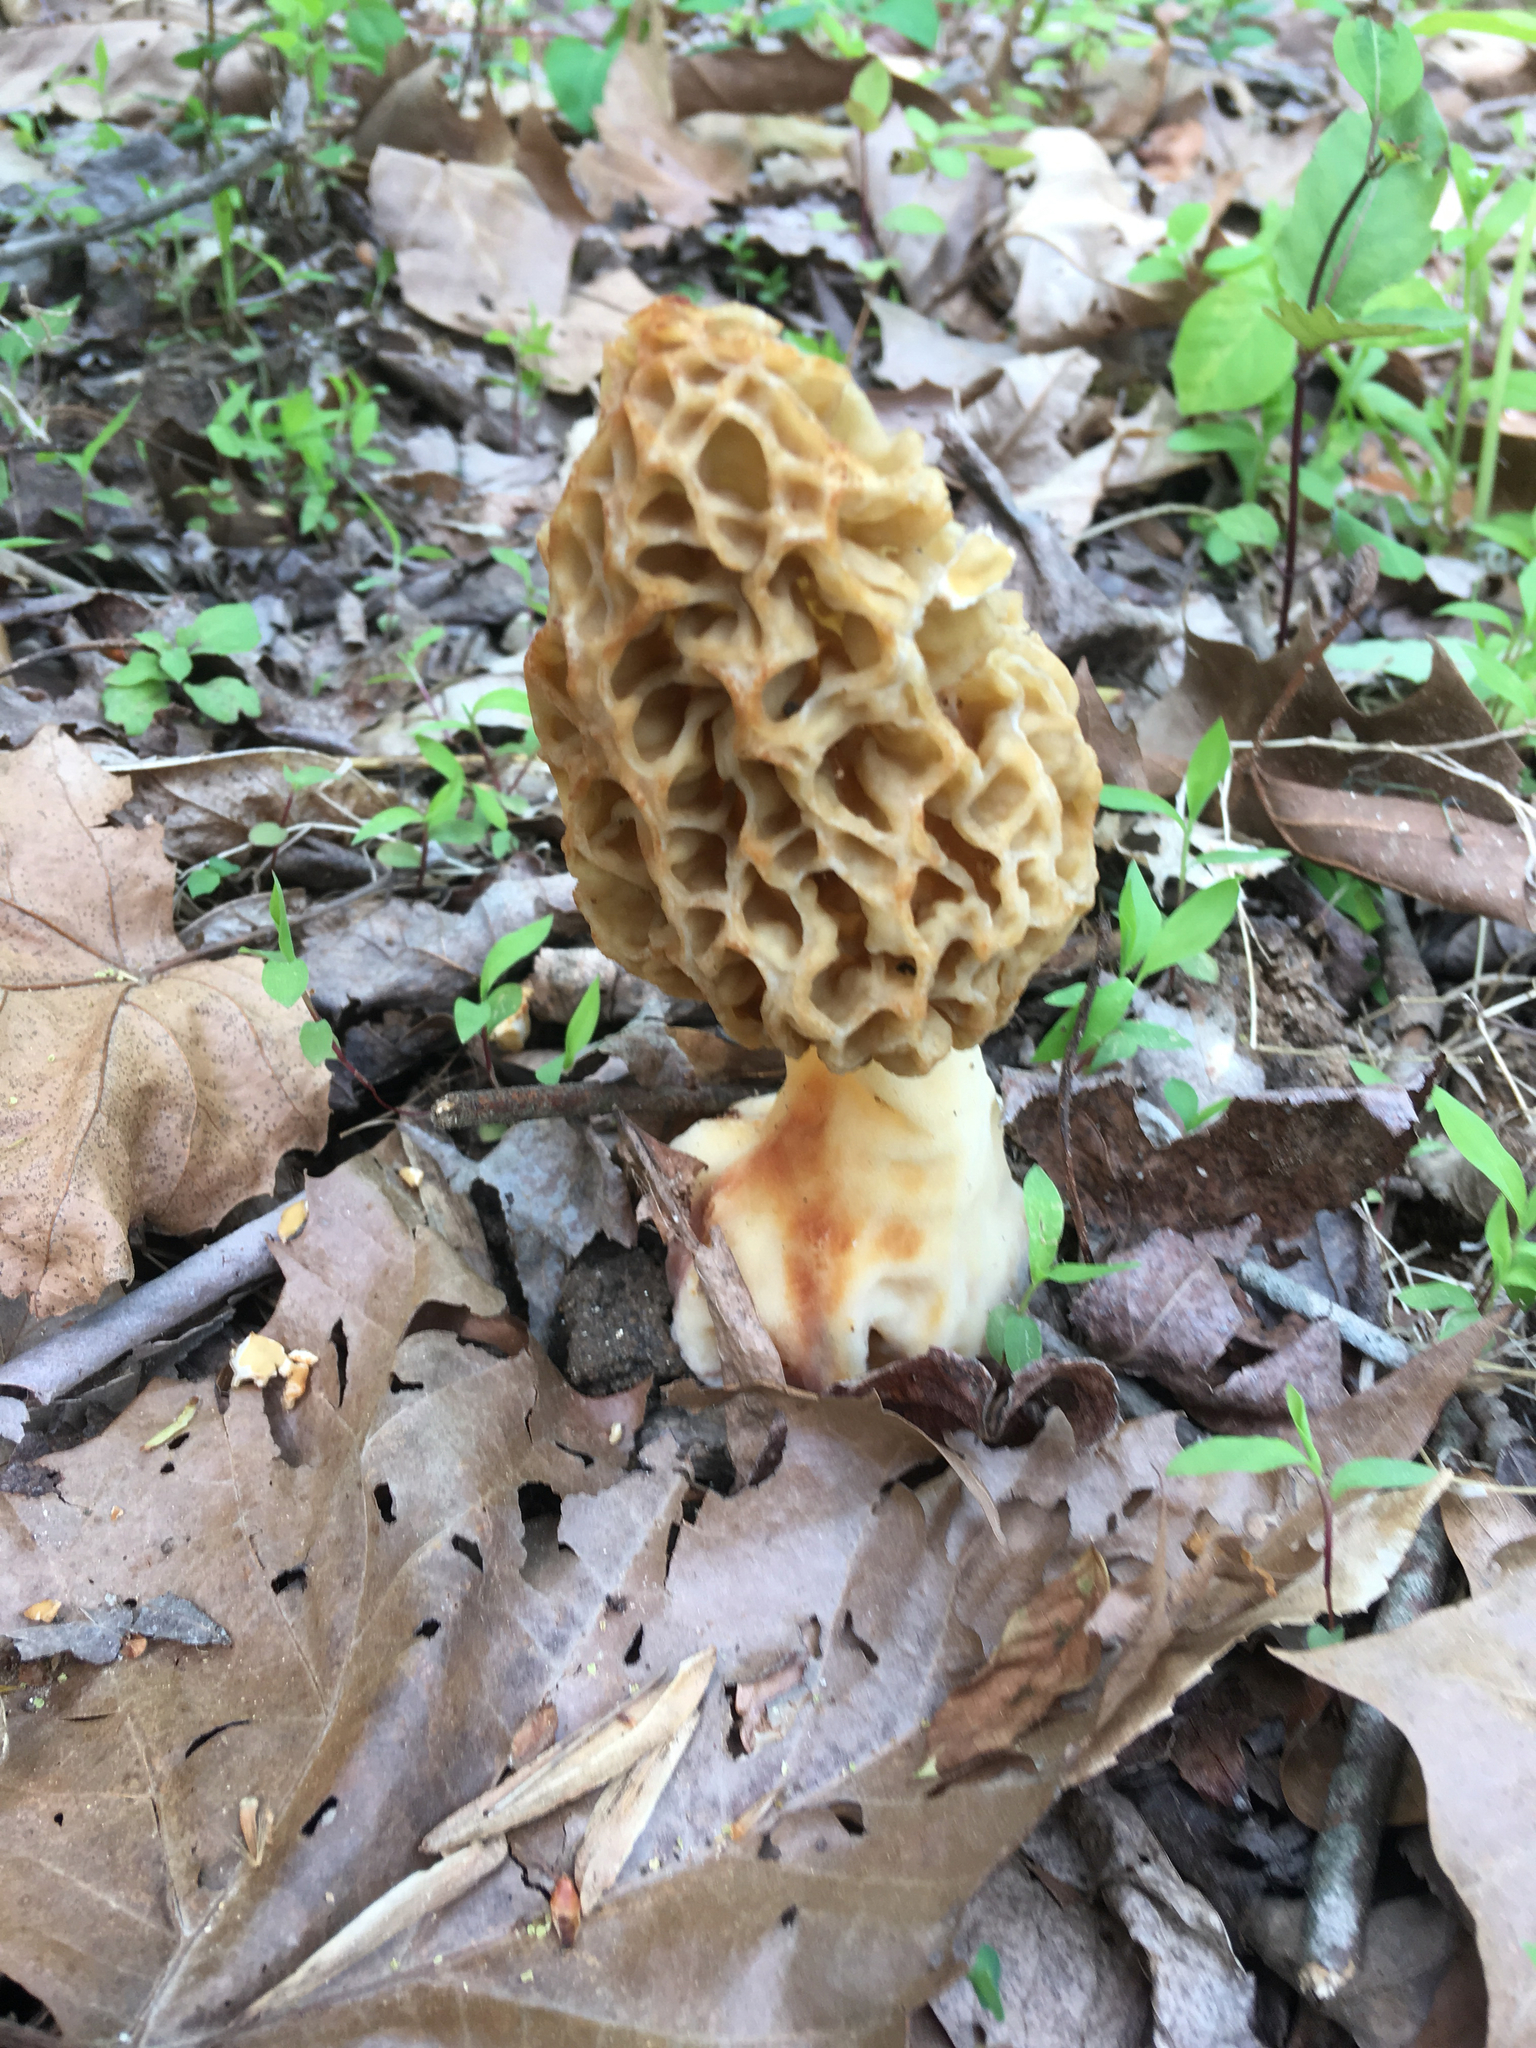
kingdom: Fungi
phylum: Ascomycota
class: Pezizomycetes
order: Pezizales
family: Morchellaceae
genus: Morchella
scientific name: Morchella americana
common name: White morel
